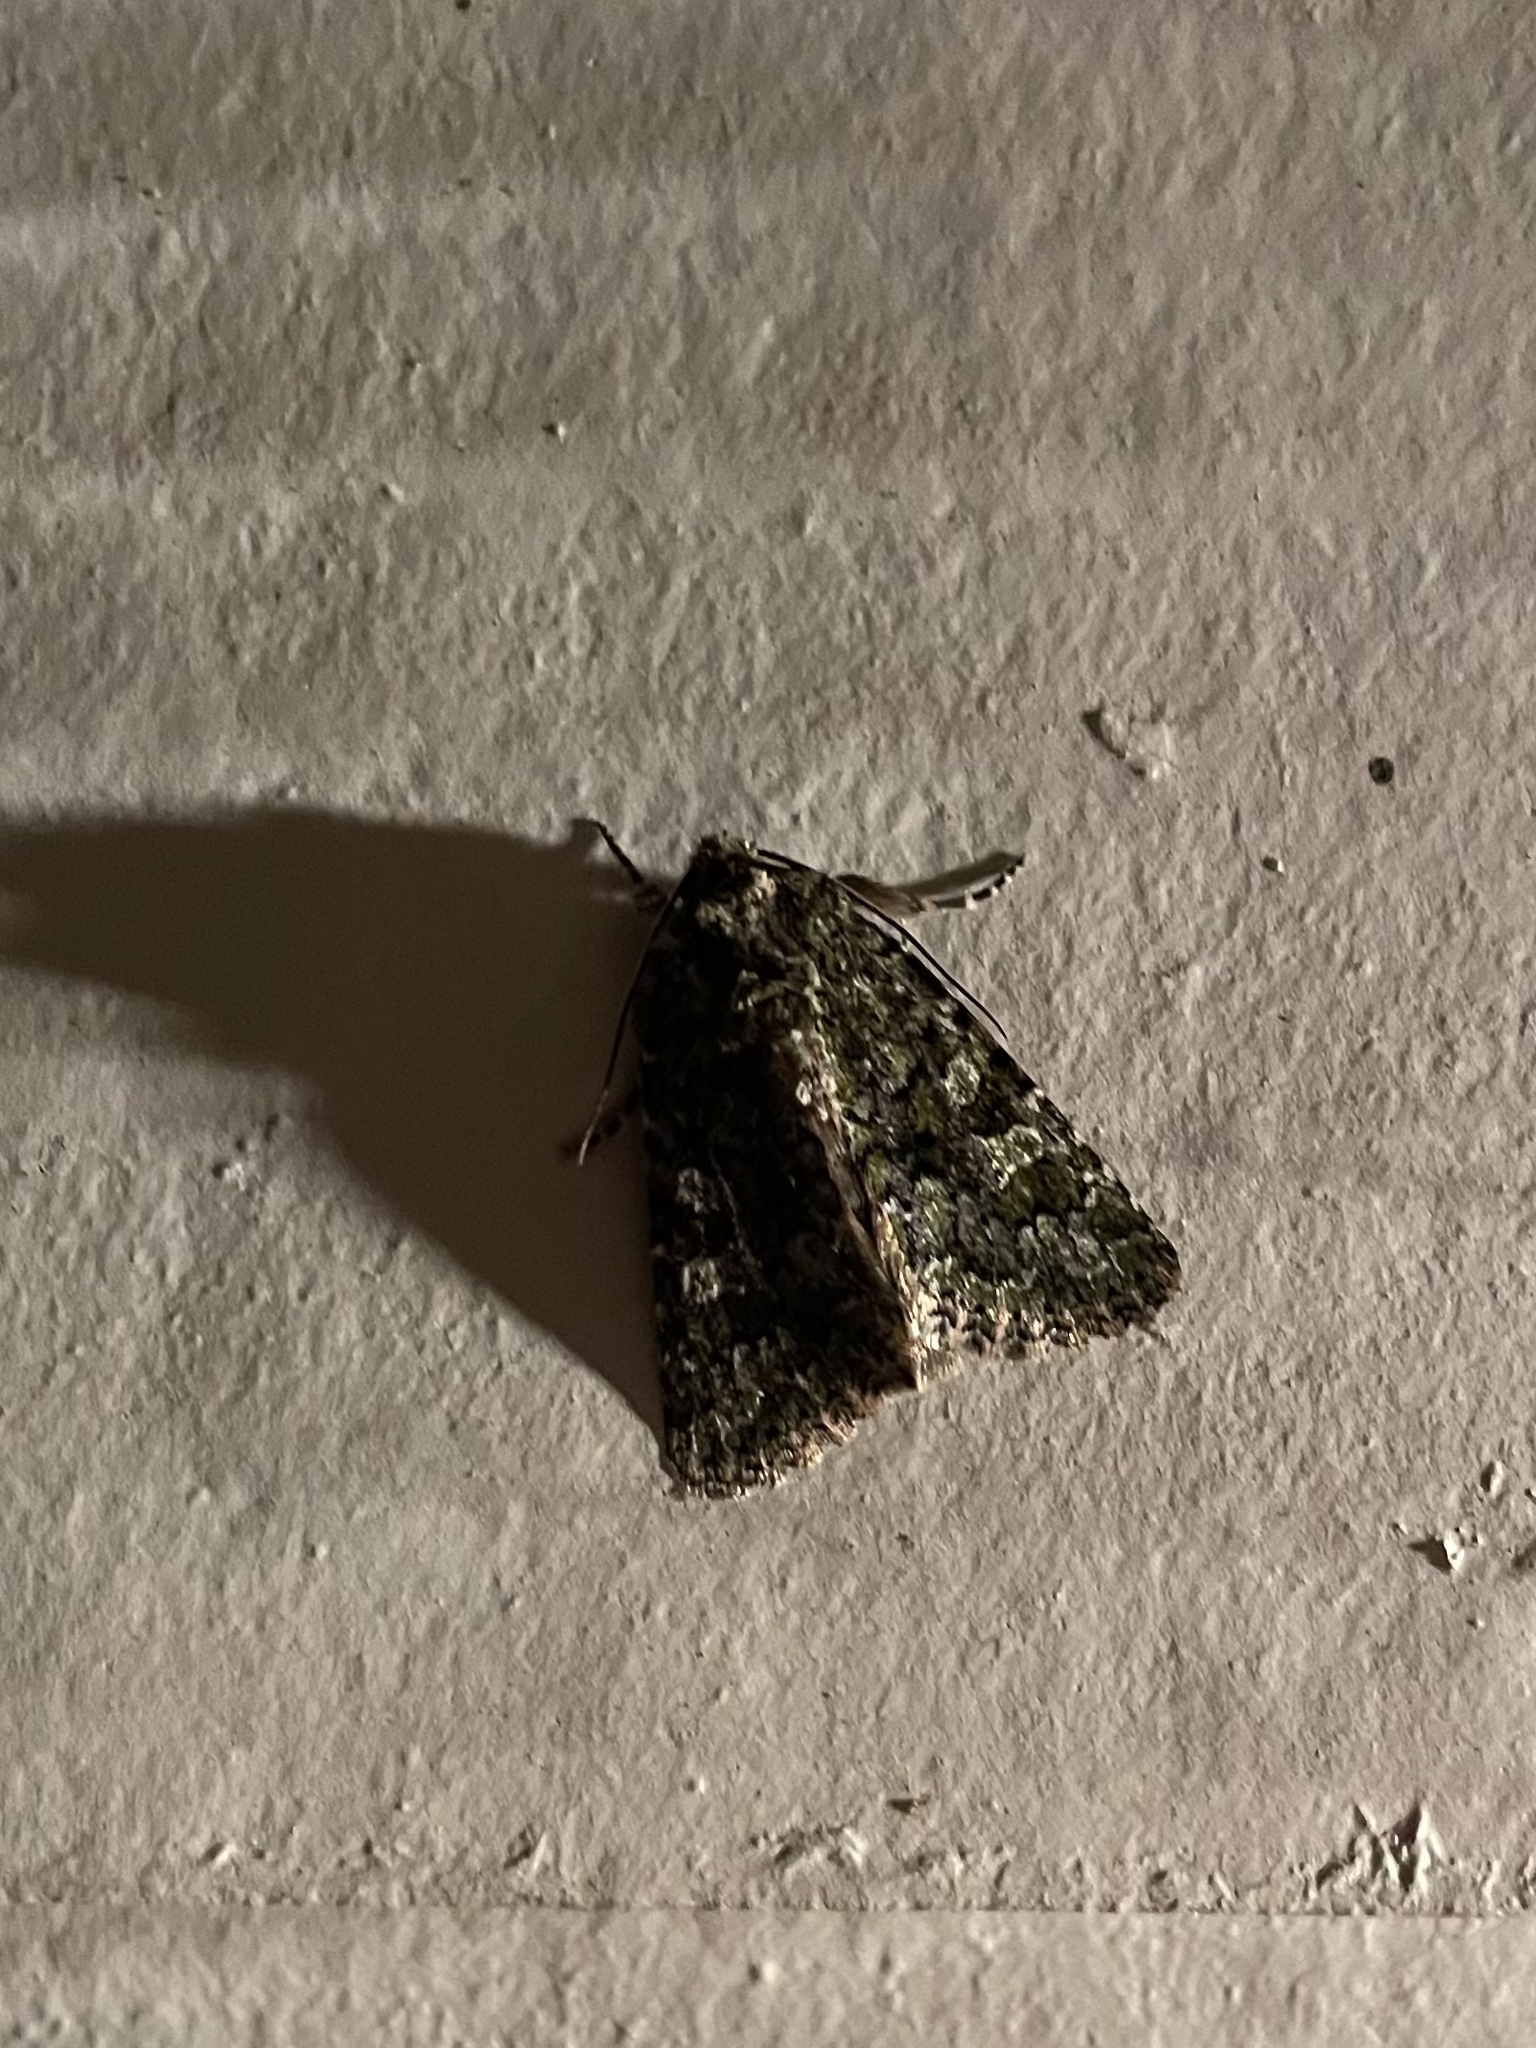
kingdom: Animalia
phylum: Arthropoda
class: Insecta
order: Lepidoptera
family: Noctuidae
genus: Aseptis
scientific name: Aseptis marina
